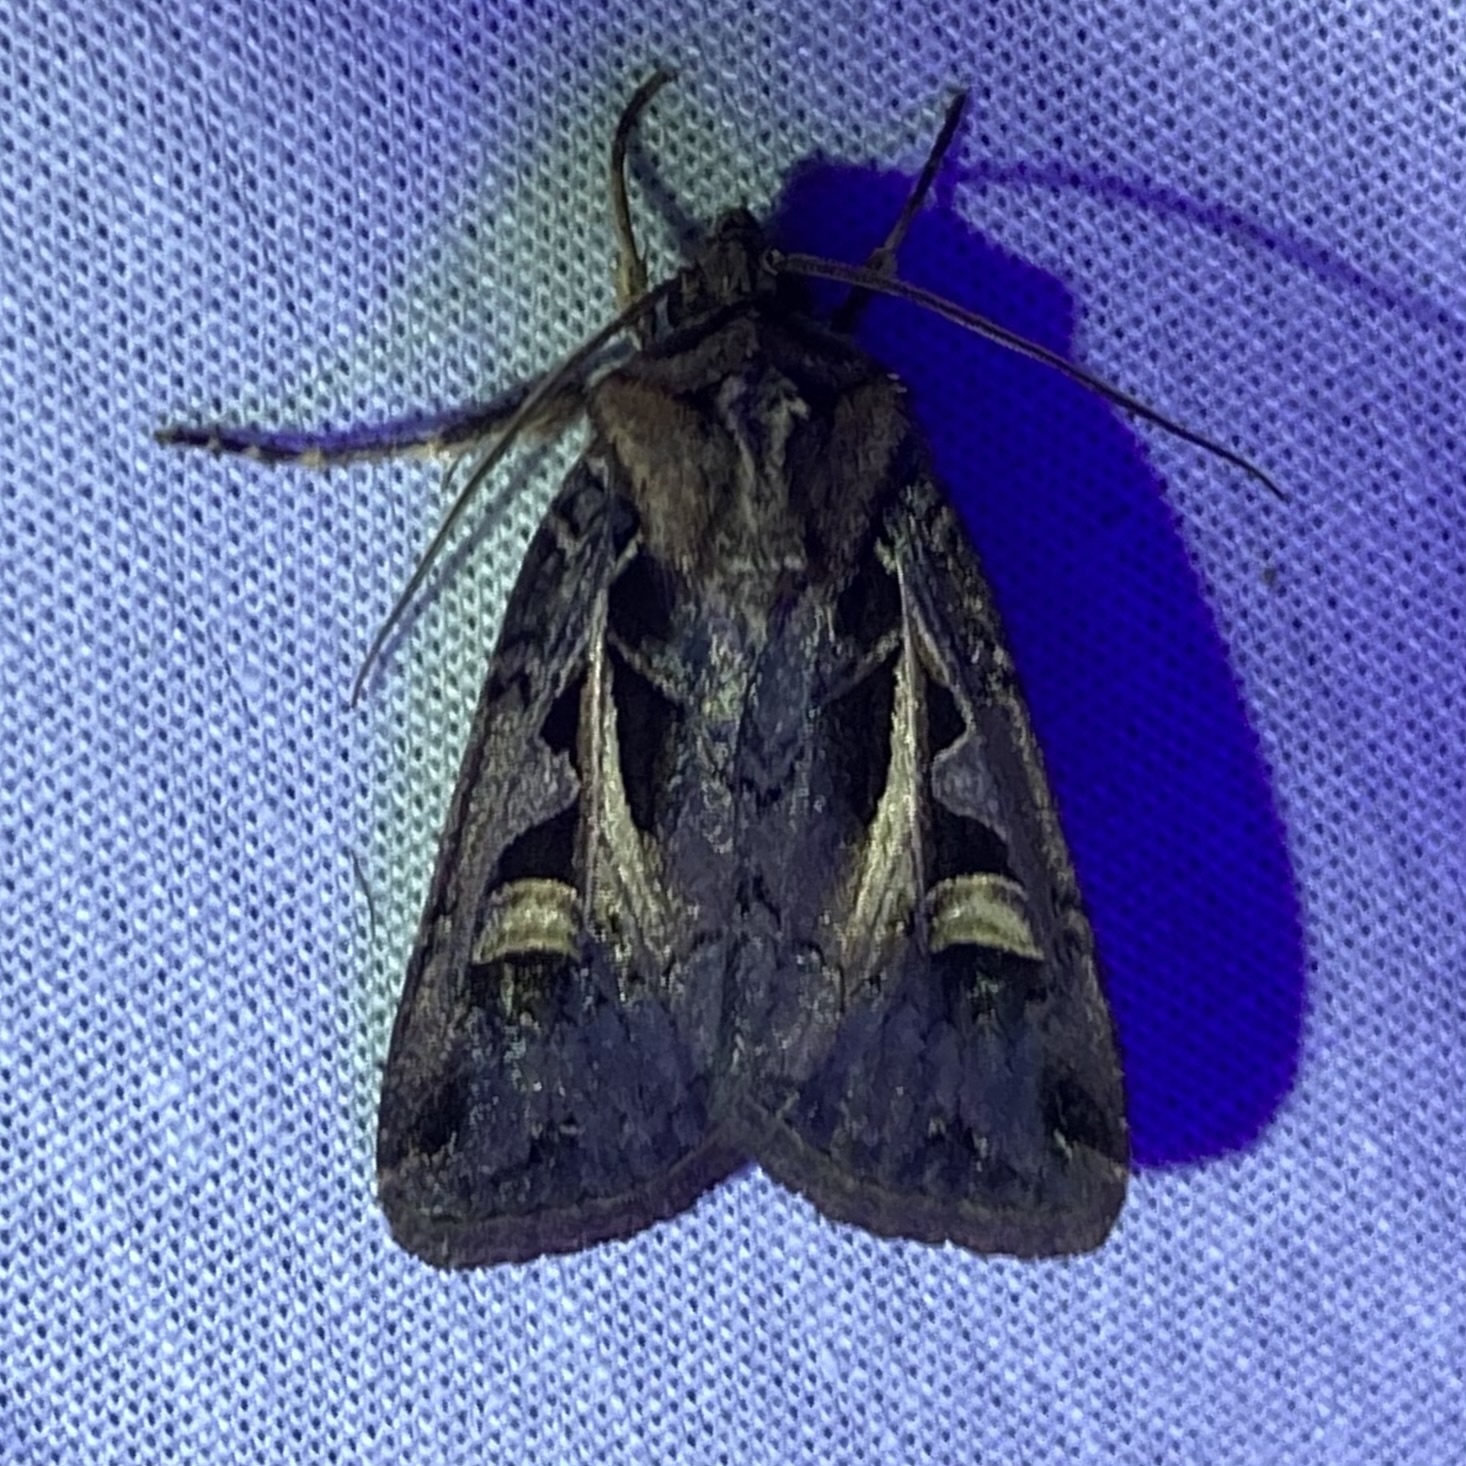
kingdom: Animalia
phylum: Arthropoda
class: Insecta
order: Lepidoptera
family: Noctuidae
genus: Feltia
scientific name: Feltia herilis
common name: Master's dart
